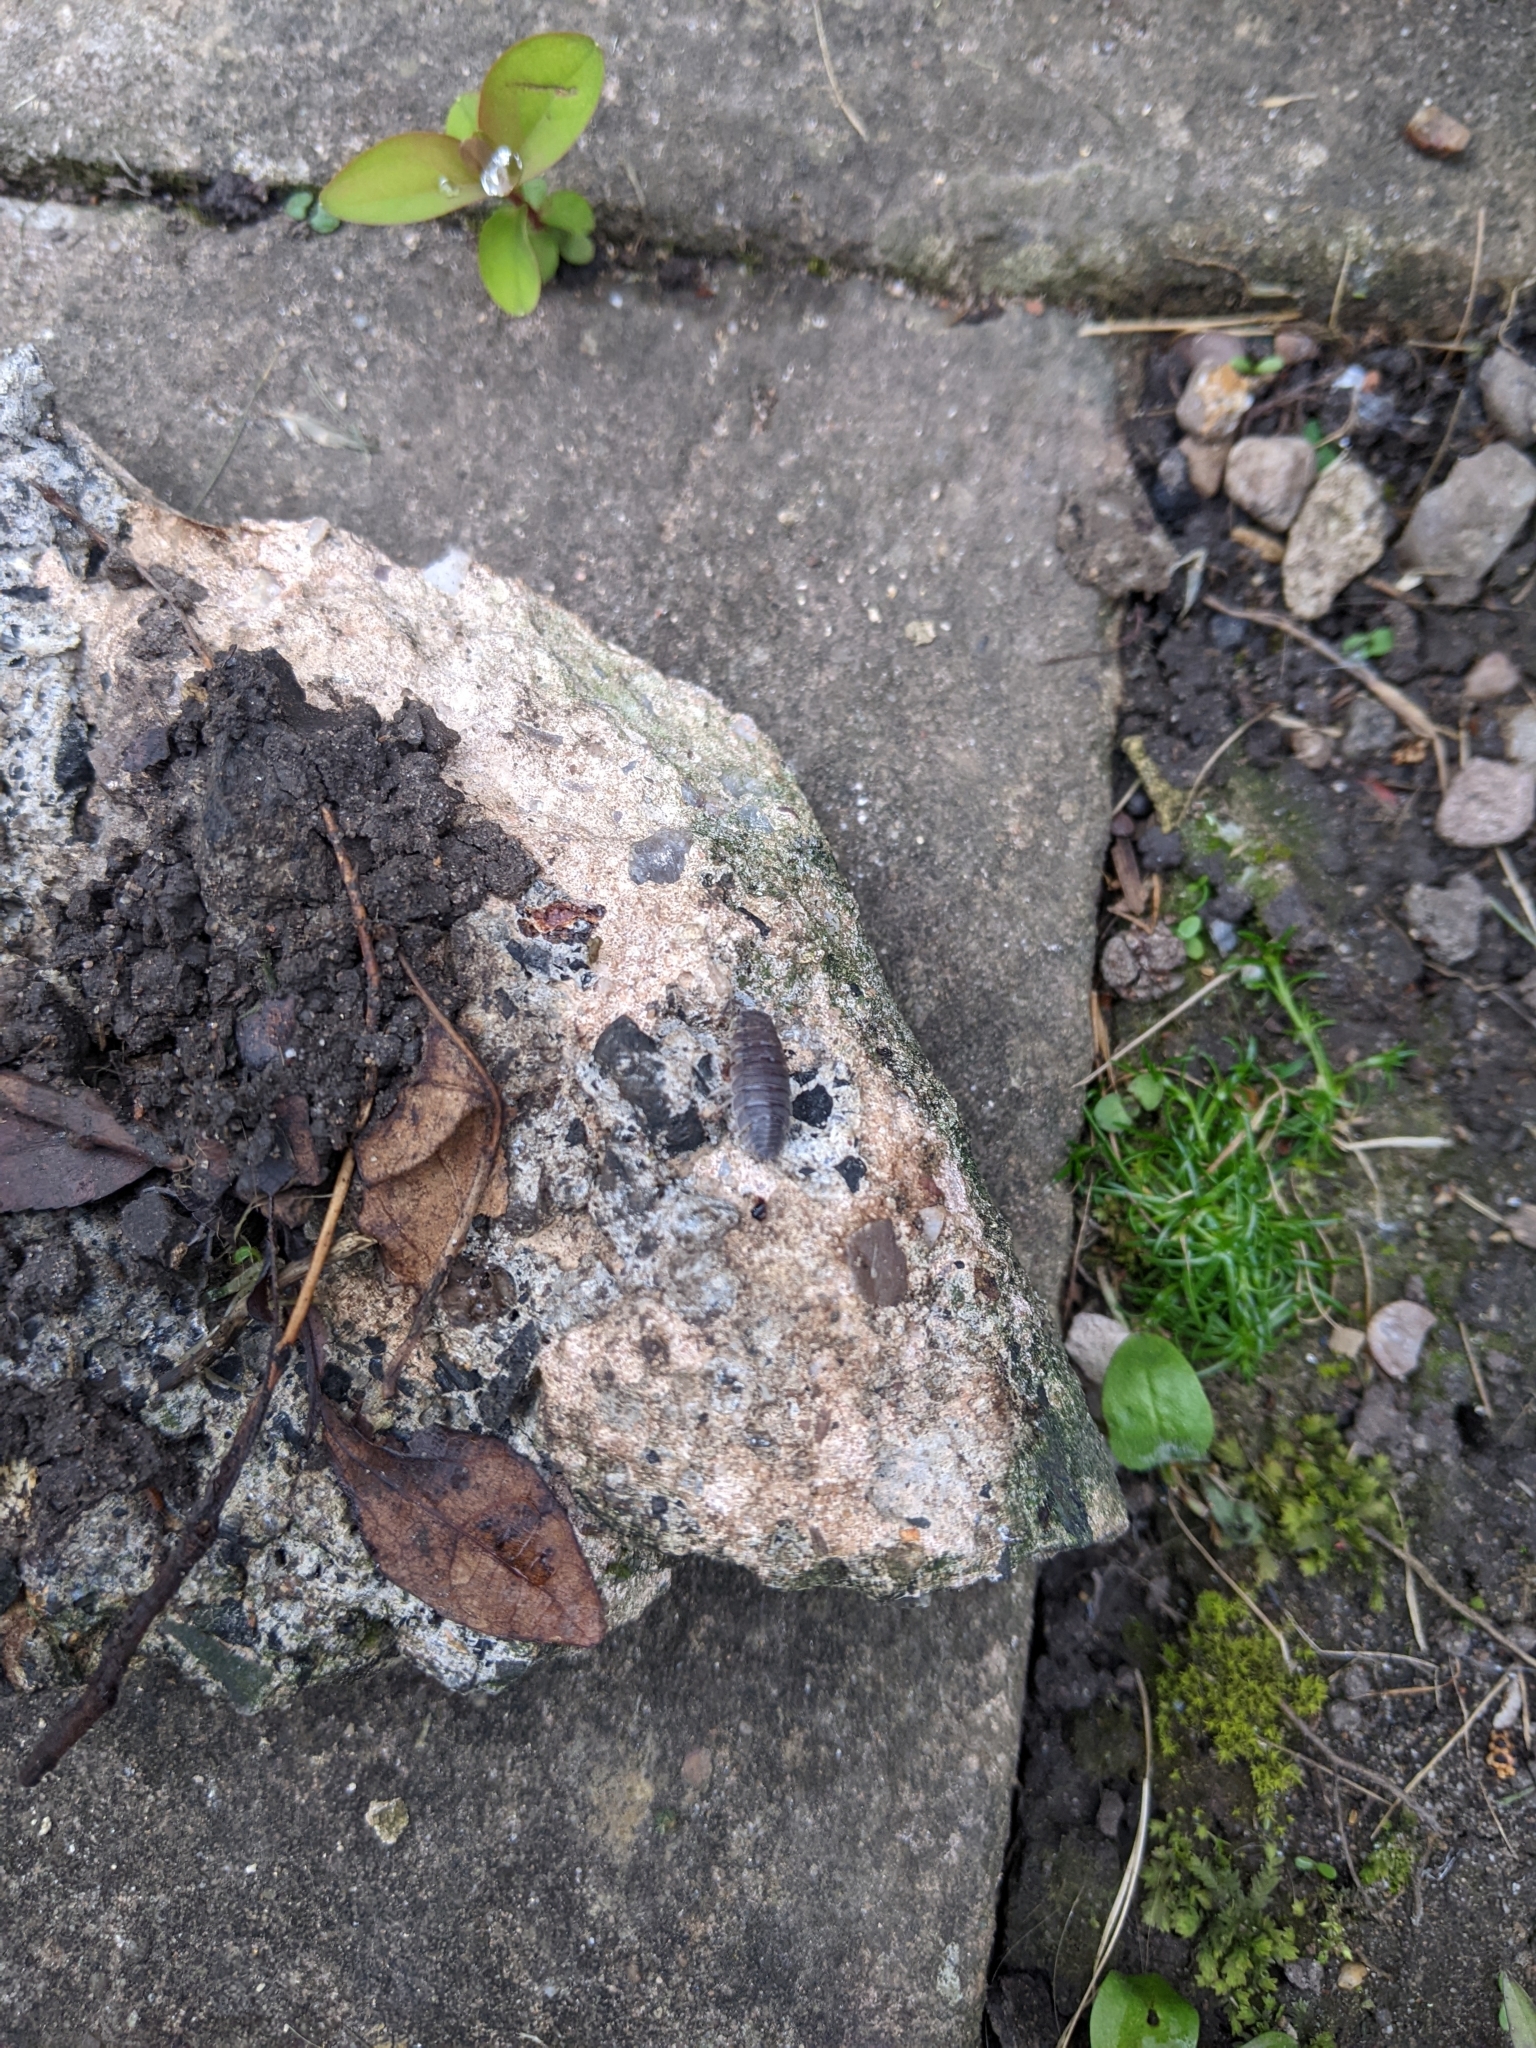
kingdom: Animalia
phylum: Arthropoda
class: Malacostraca
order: Isopoda
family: Porcellionidae
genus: Porcellio
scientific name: Porcellio scaber
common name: Common rough woodlouse
